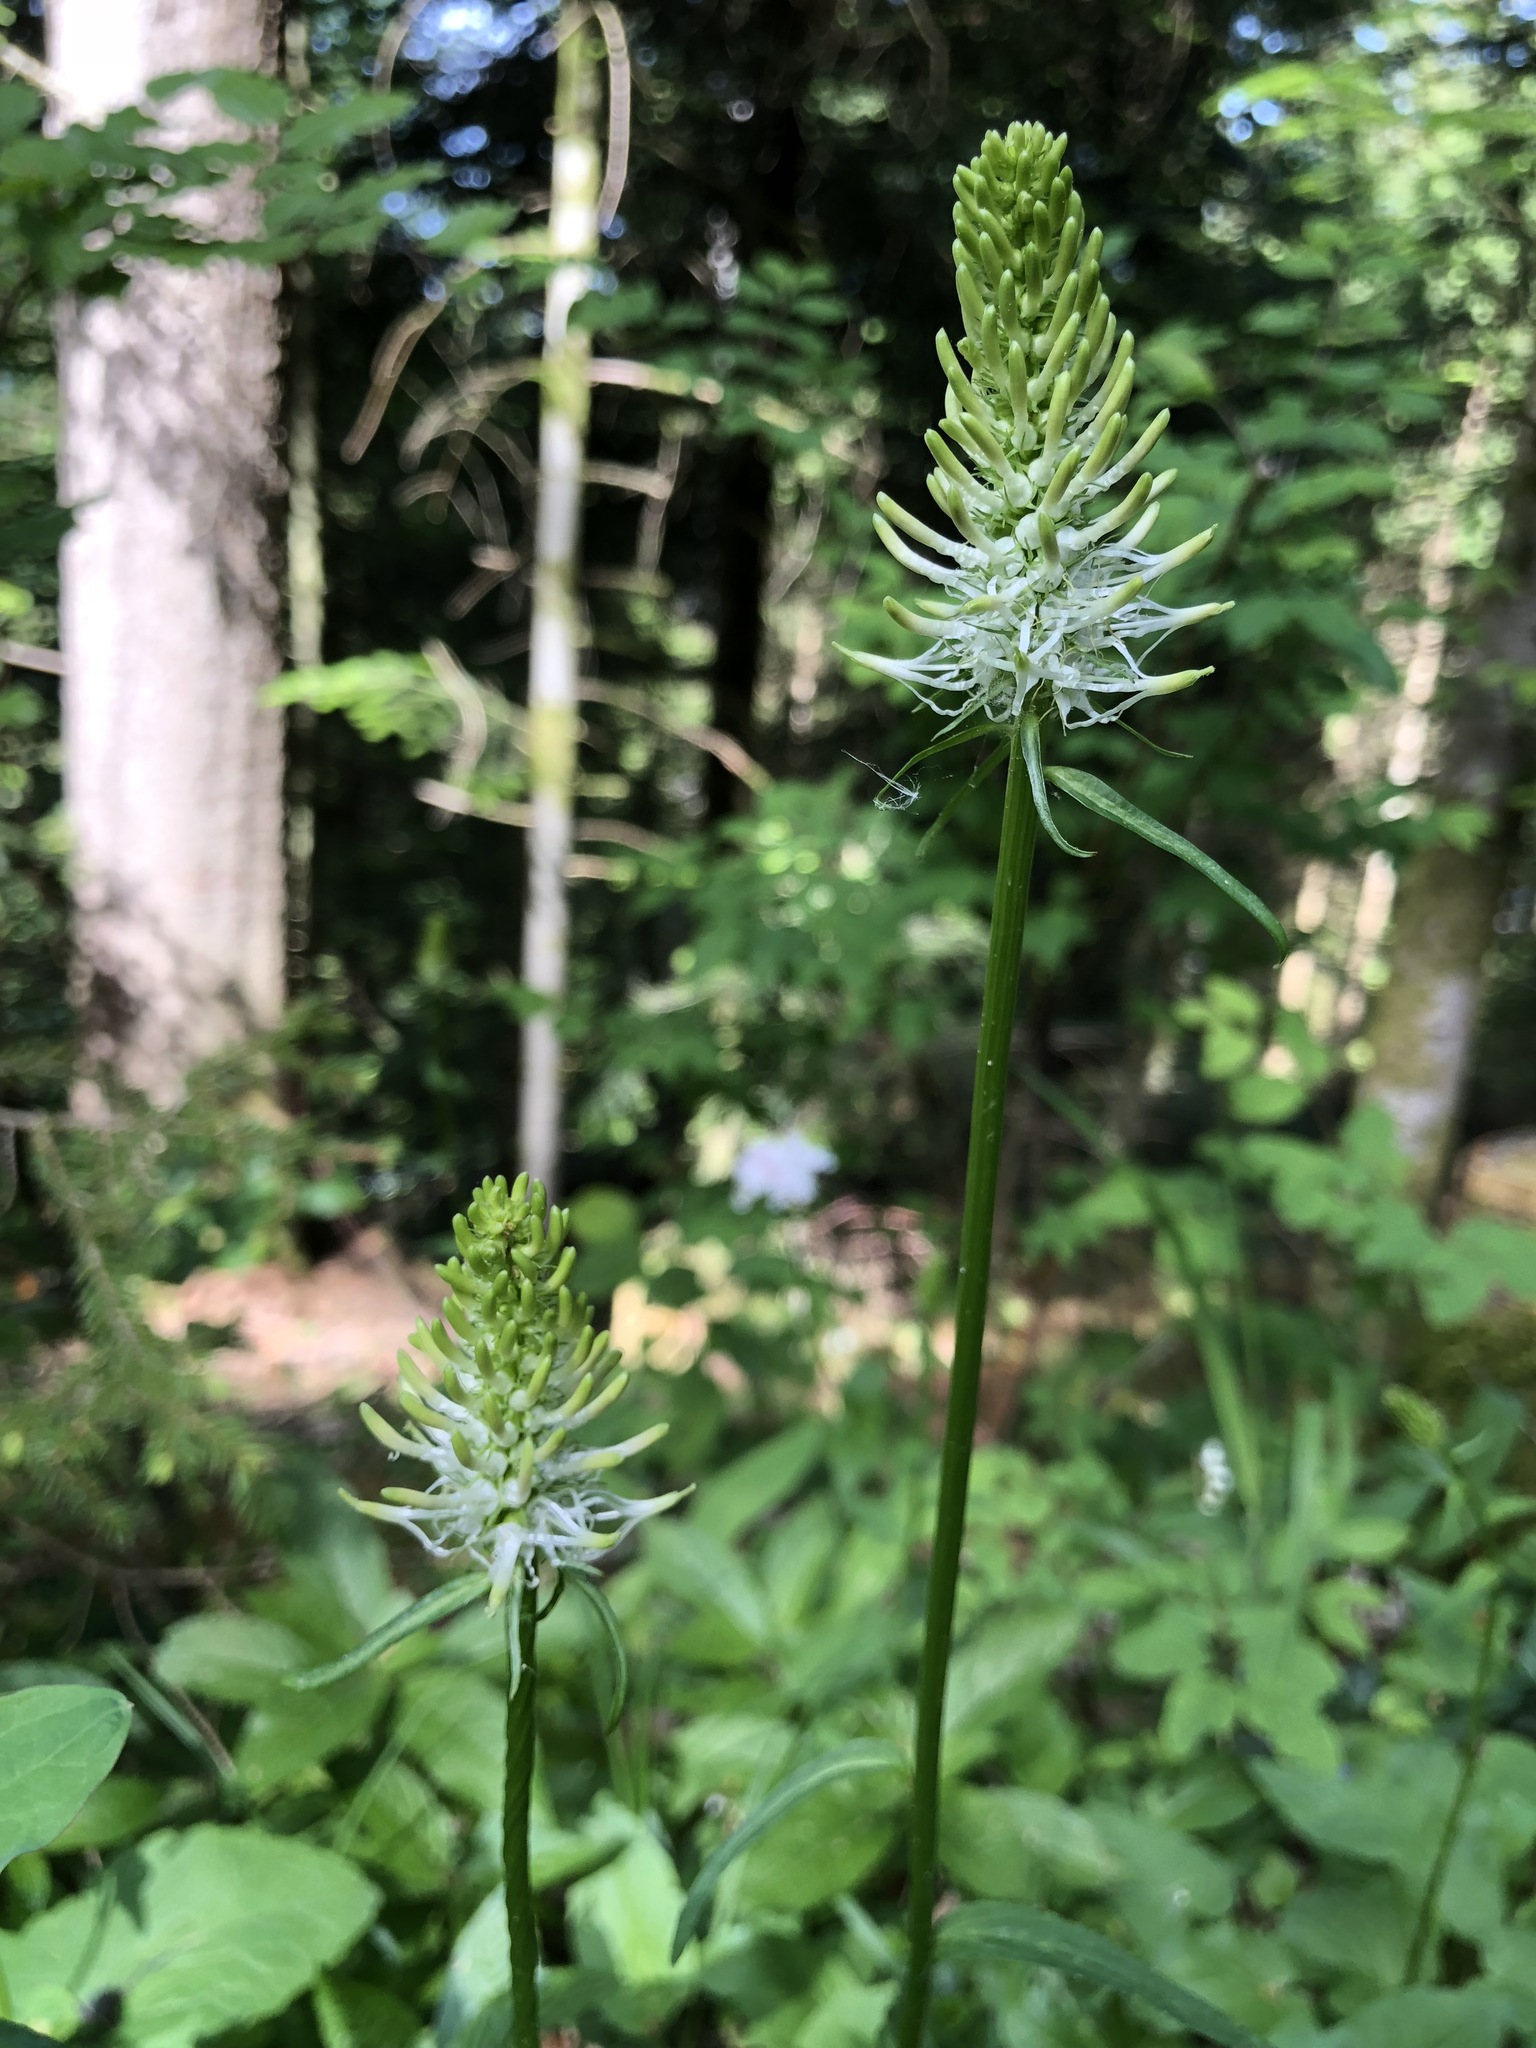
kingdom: Plantae
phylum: Tracheophyta
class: Magnoliopsida
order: Asterales
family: Campanulaceae
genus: Phyteuma
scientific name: Phyteuma spicatum
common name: Spiked rampion
